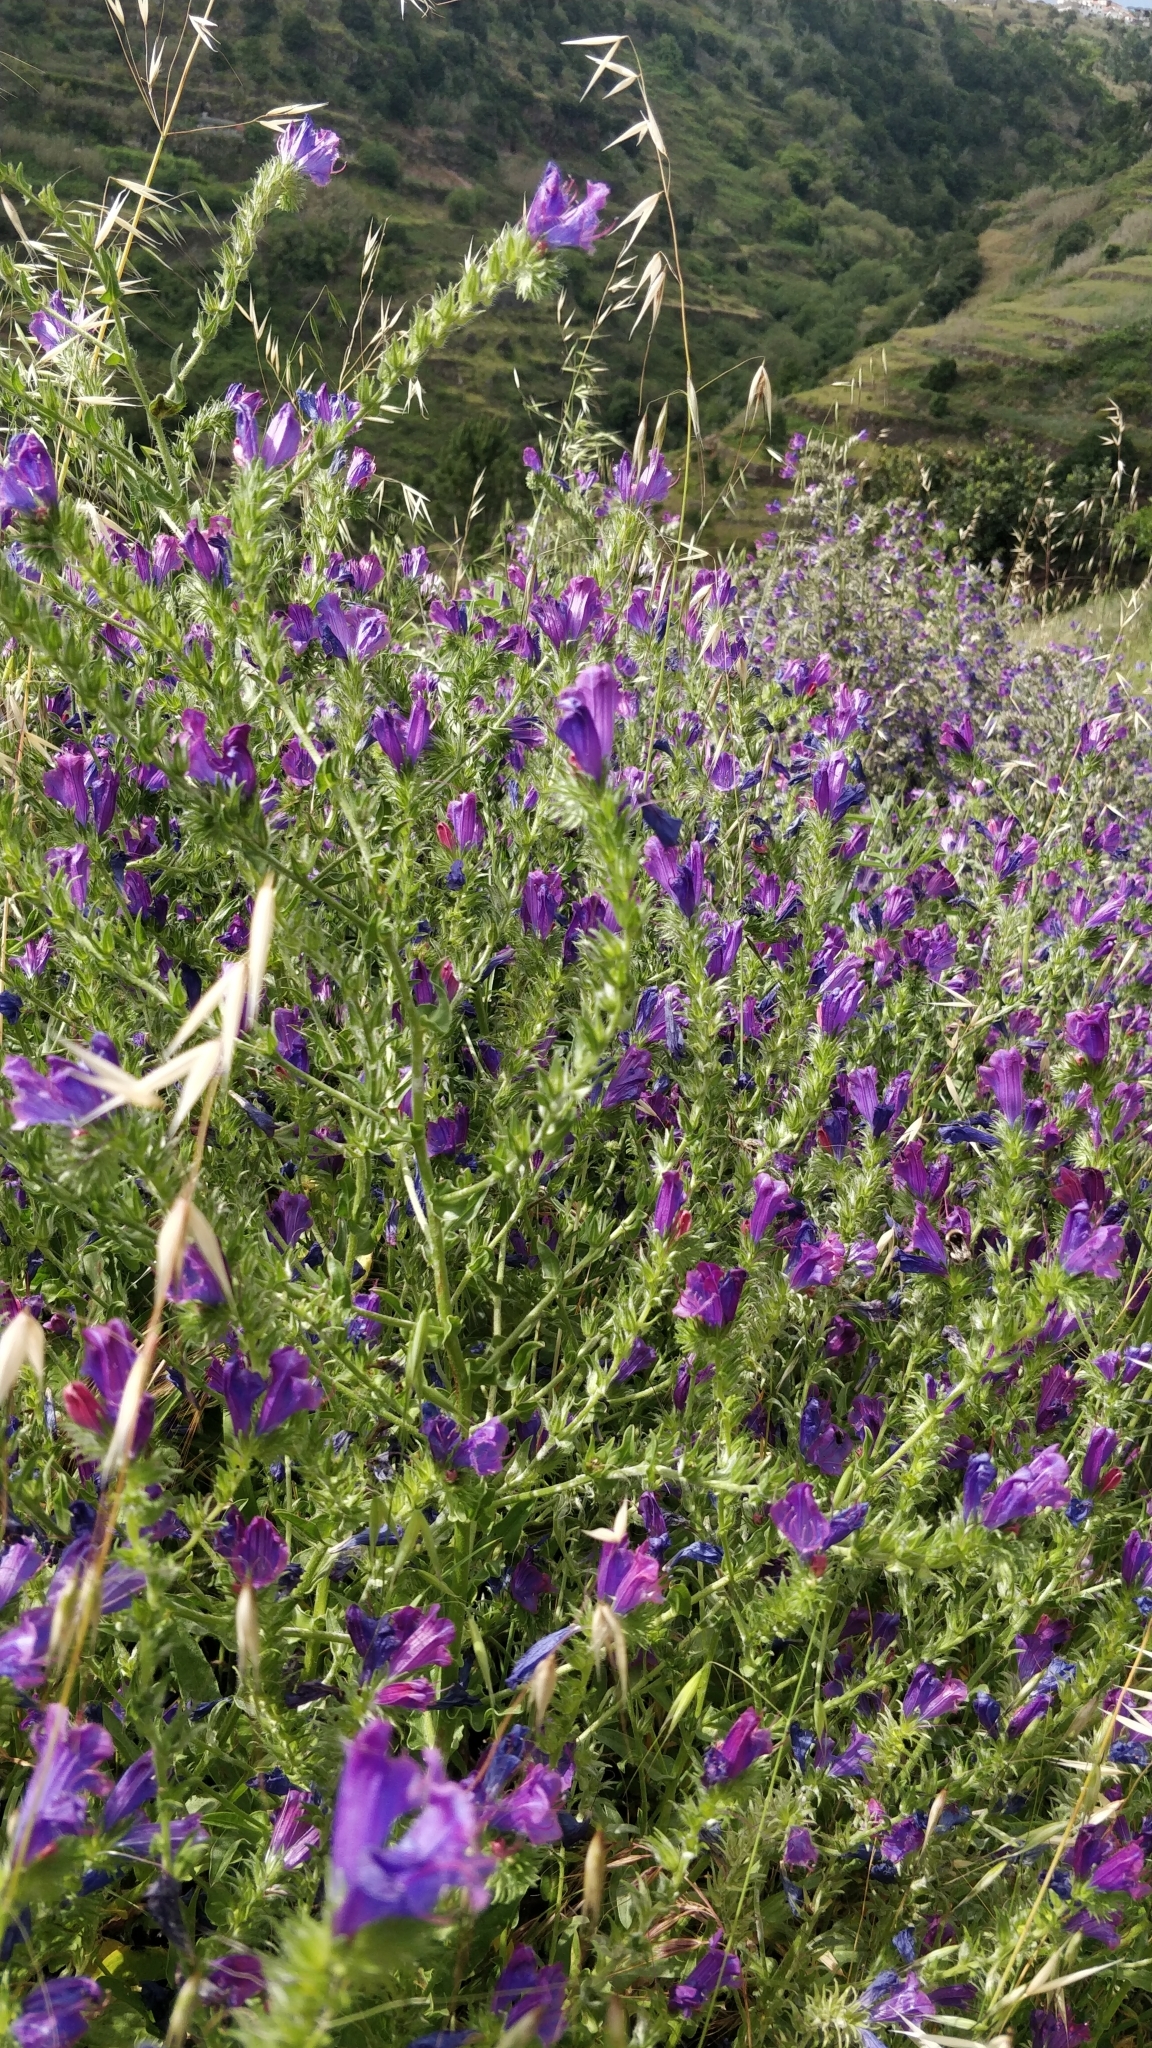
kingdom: Plantae
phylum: Tracheophyta
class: Magnoliopsida
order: Boraginales
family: Boraginaceae
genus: Echium
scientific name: Echium plantagineum
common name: Purple viper's-bugloss
